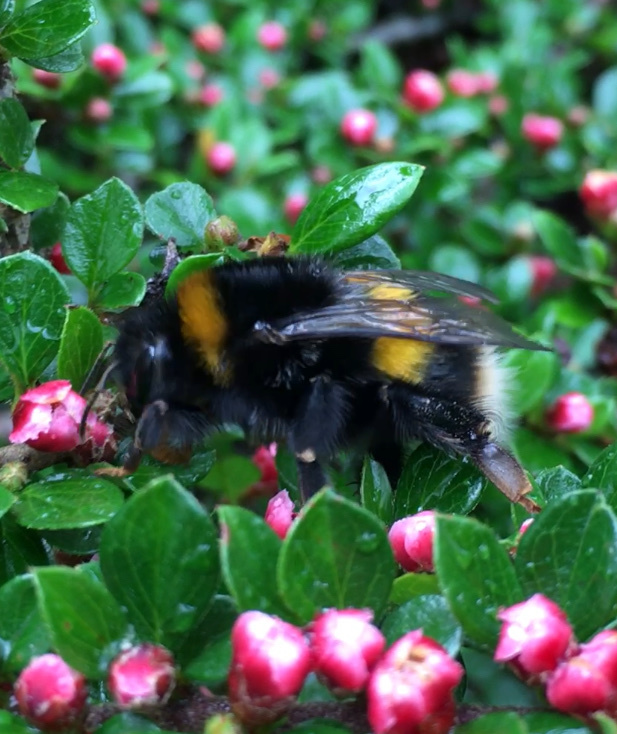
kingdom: Animalia
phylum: Arthropoda
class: Insecta
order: Hymenoptera
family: Apidae
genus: Bombus
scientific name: Bombus terrestris
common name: Buff-tailed bumblebee
